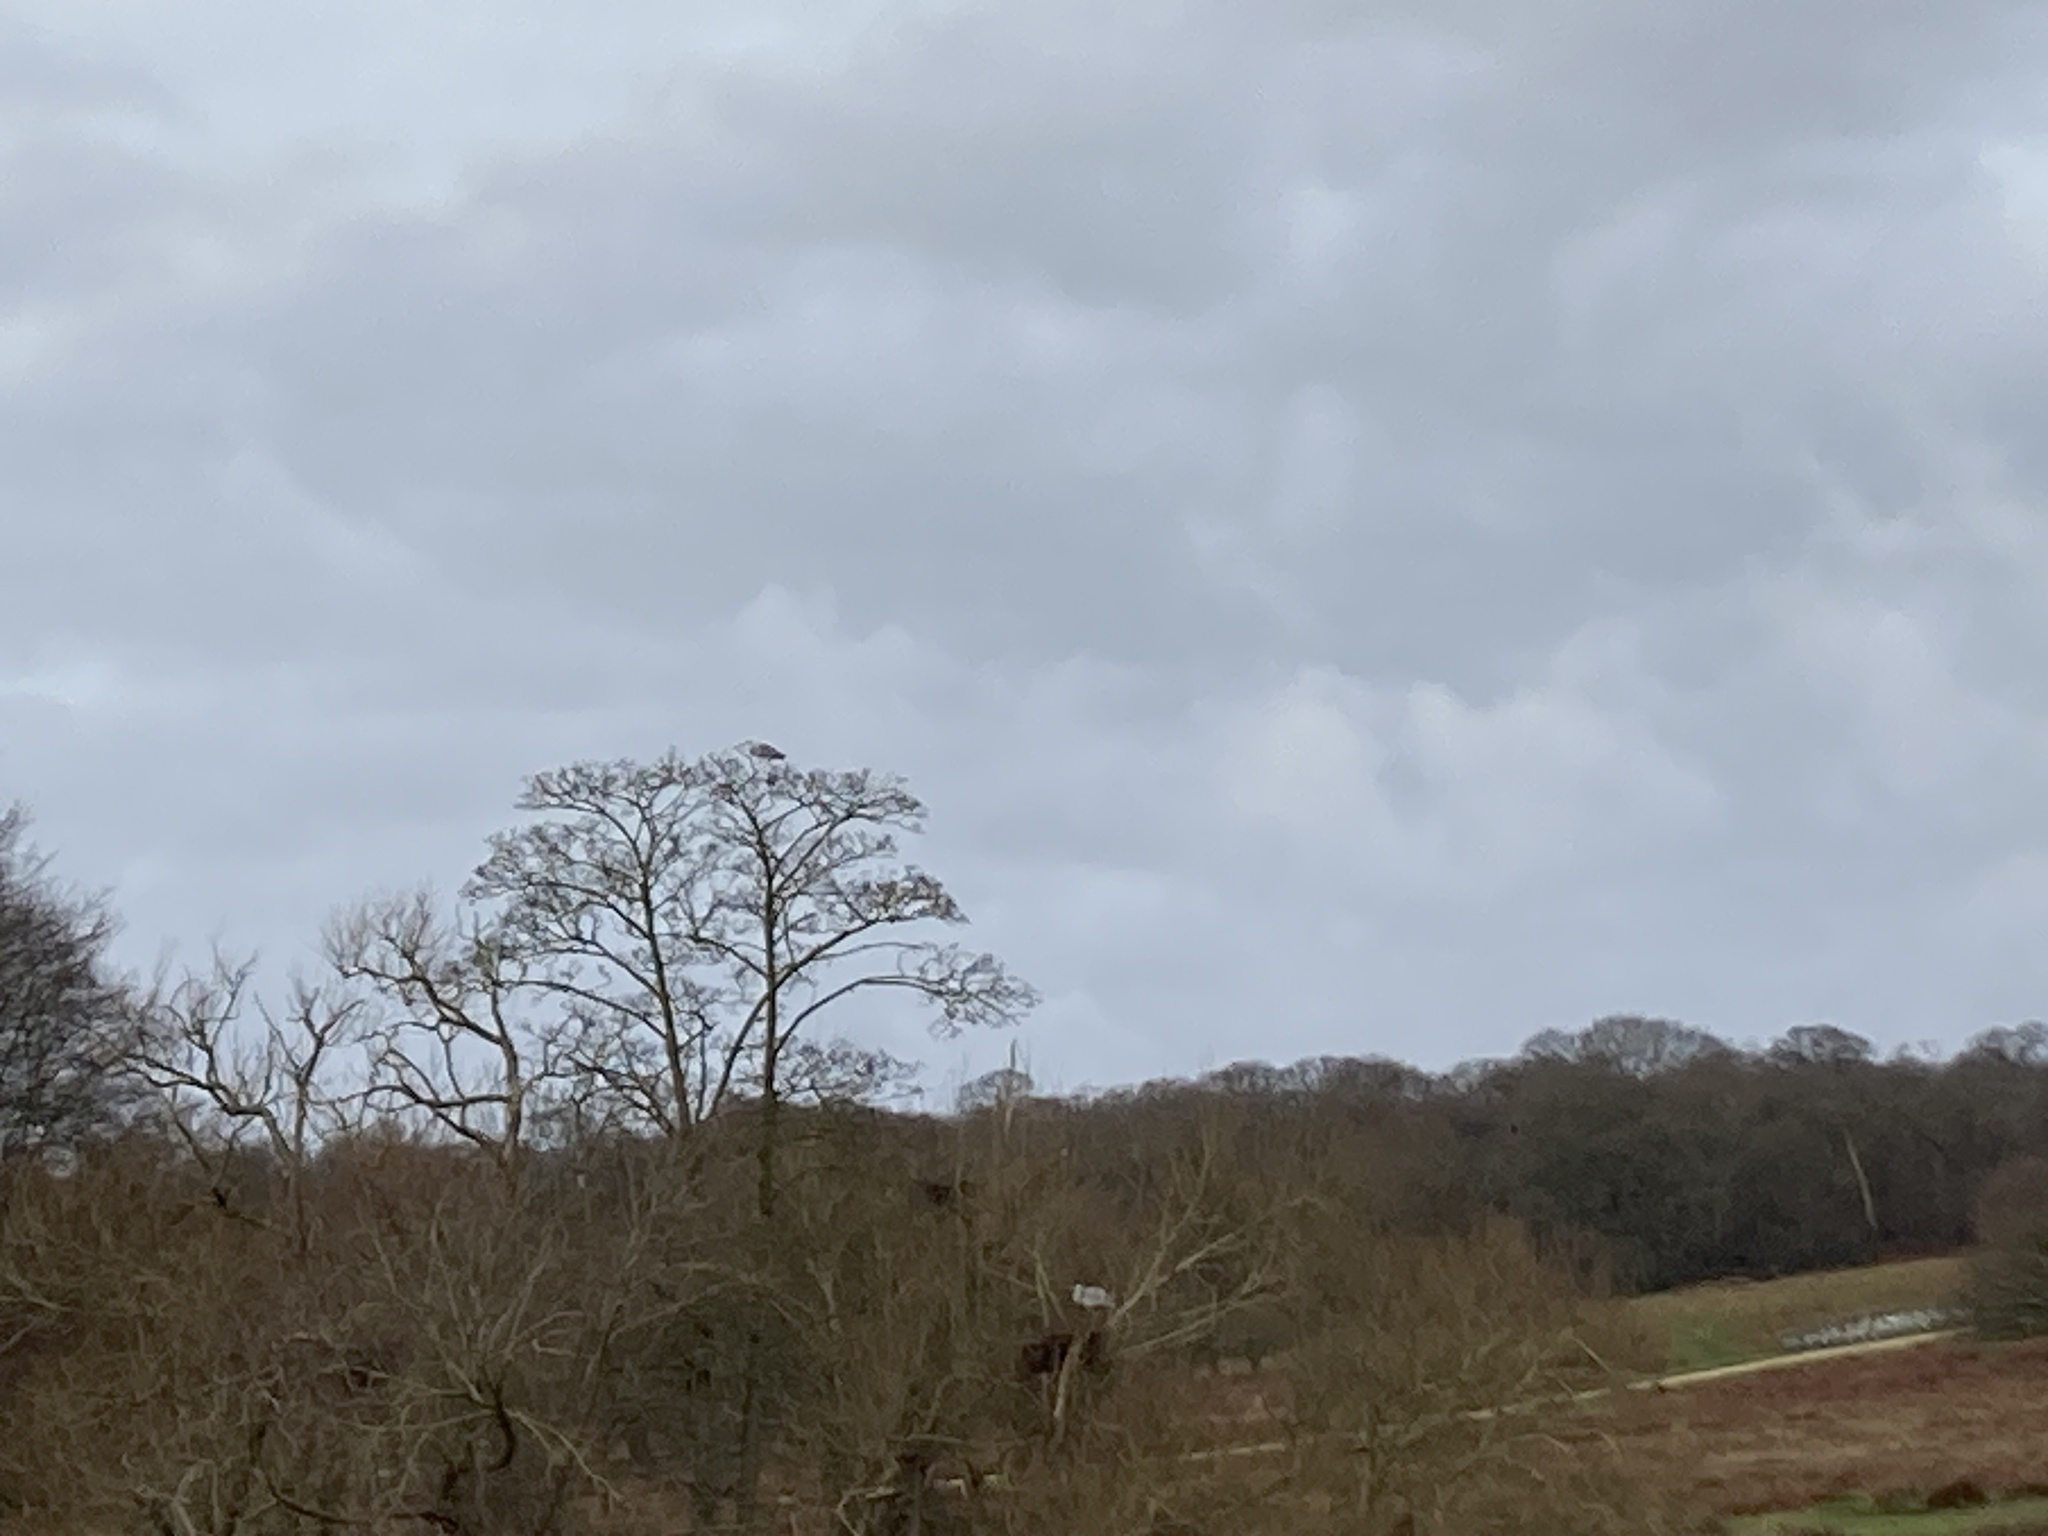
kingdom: Animalia
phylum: Chordata
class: Aves
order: Pelecaniformes
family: Ardeidae
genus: Ardea
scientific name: Ardea cinerea
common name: Grey heron
